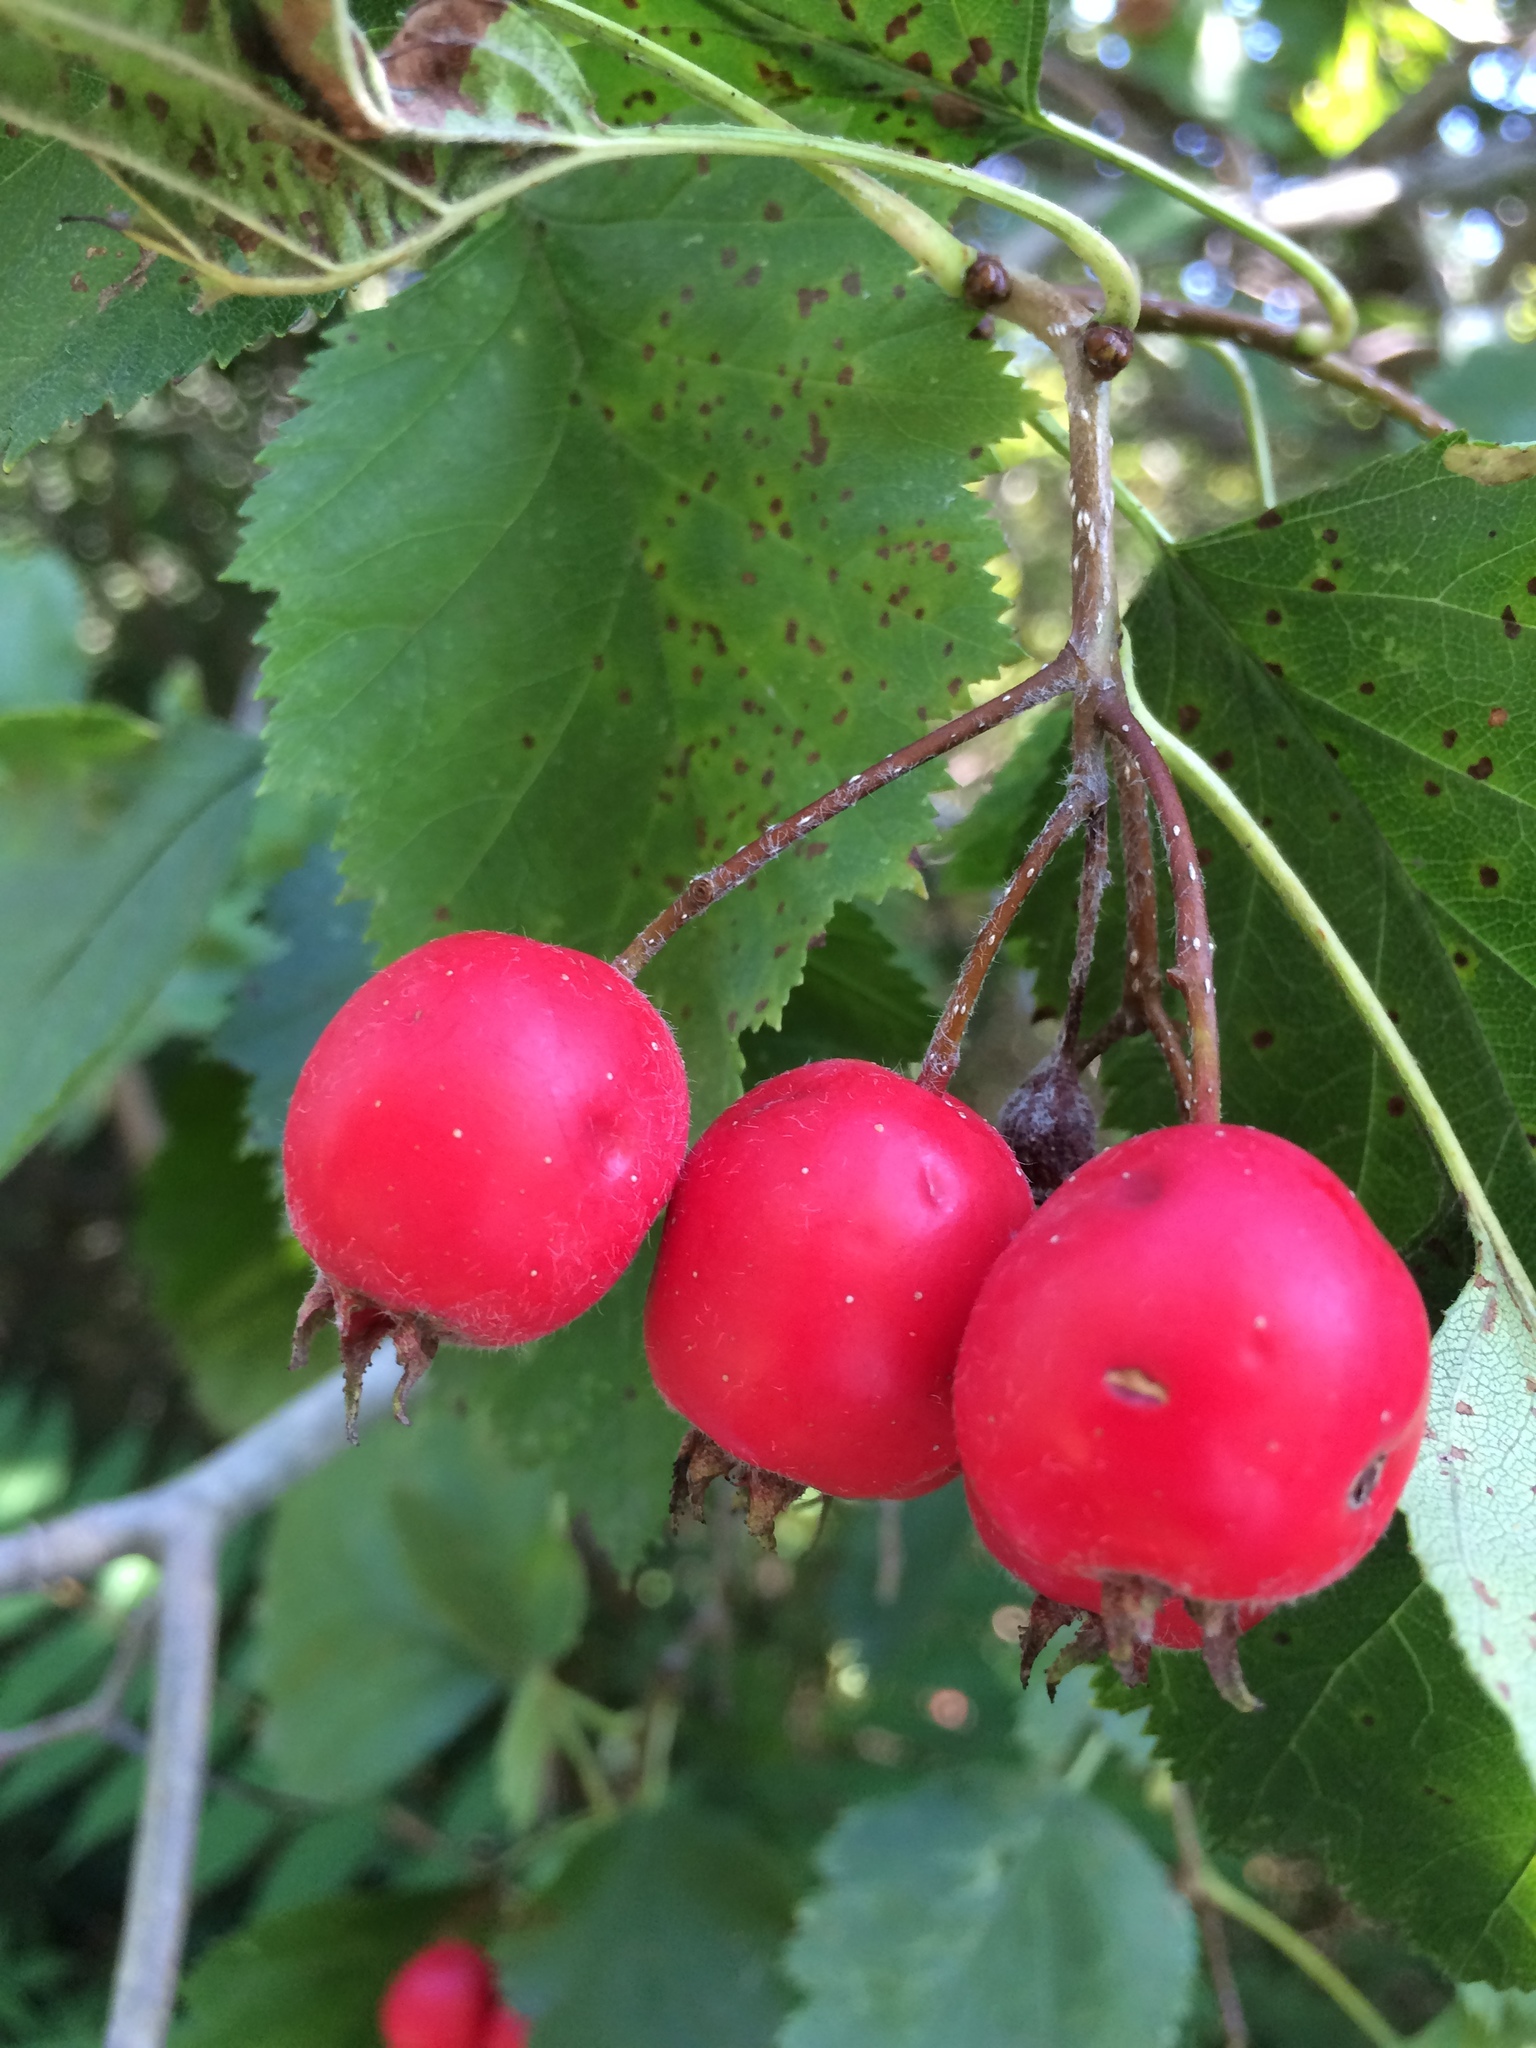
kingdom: Plantae
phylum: Tracheophyta
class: Magnoliopsida
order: Rosales
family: Rosaceae
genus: Crataegus
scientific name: Crataegus submollis
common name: Hairy cockspurthorn
